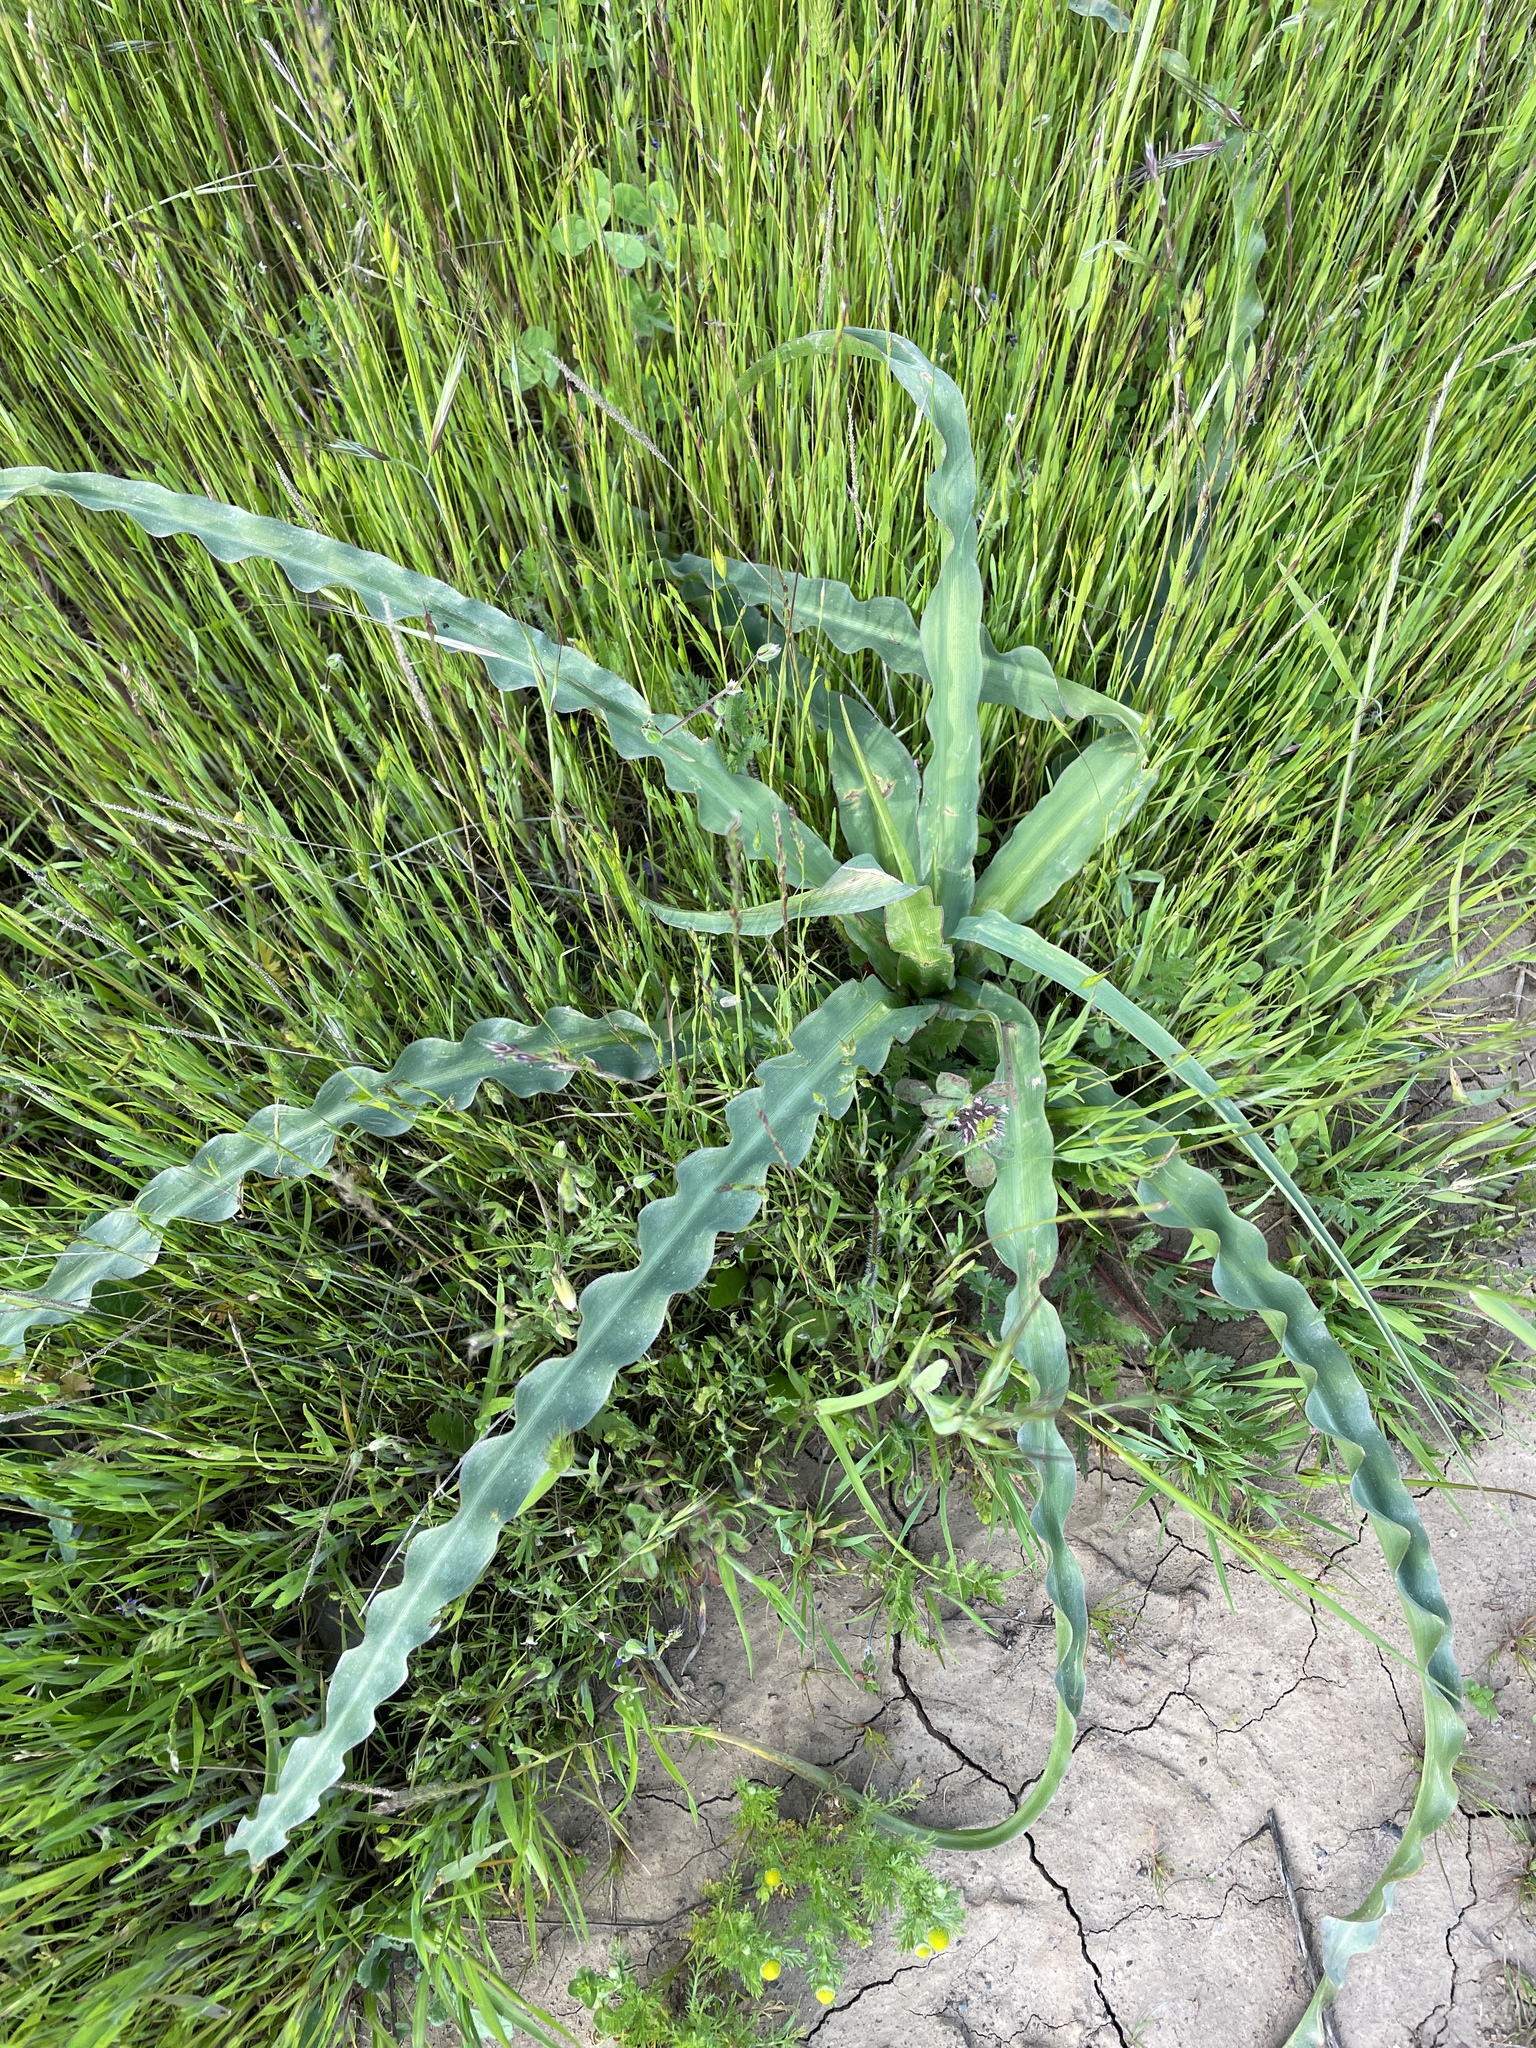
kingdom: Plantae
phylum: Tracheophyta
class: Liliopsida
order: Asparagales
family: Asparagaceae
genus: Chlorogalum
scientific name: Chlorogalum pomeridianum
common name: Amole
